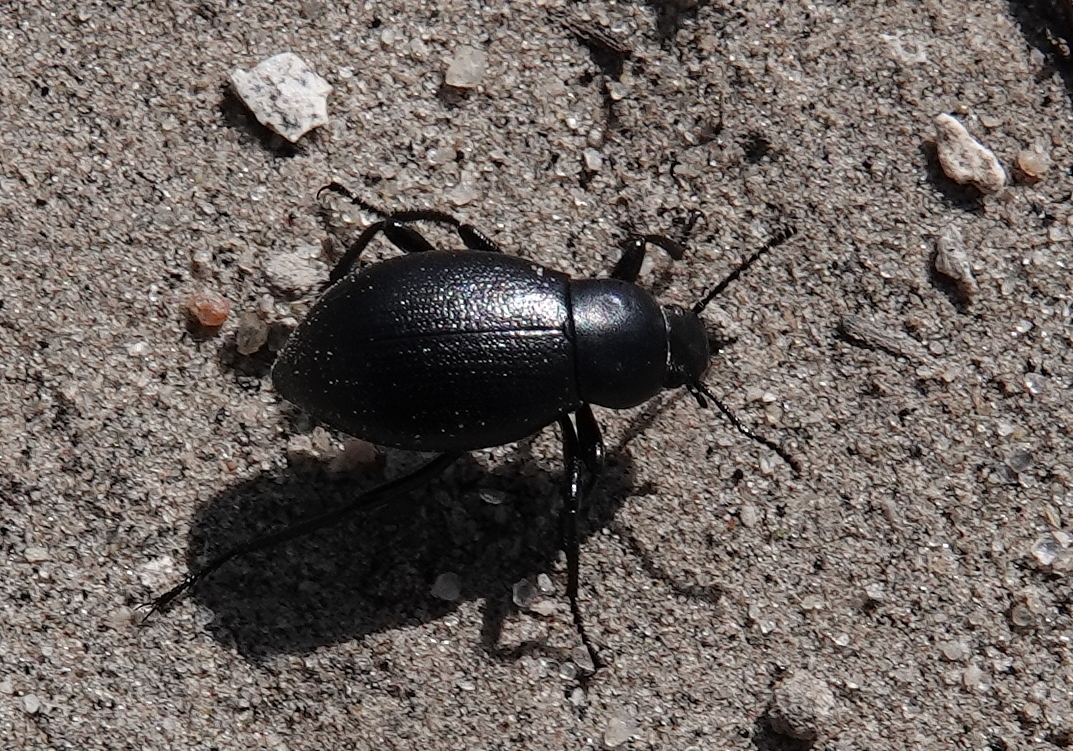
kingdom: Animalia
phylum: Arthropoda
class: Insecta
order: Coleoptera
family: Tenebrionidae
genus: Eleodes
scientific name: Eleodes extricata
